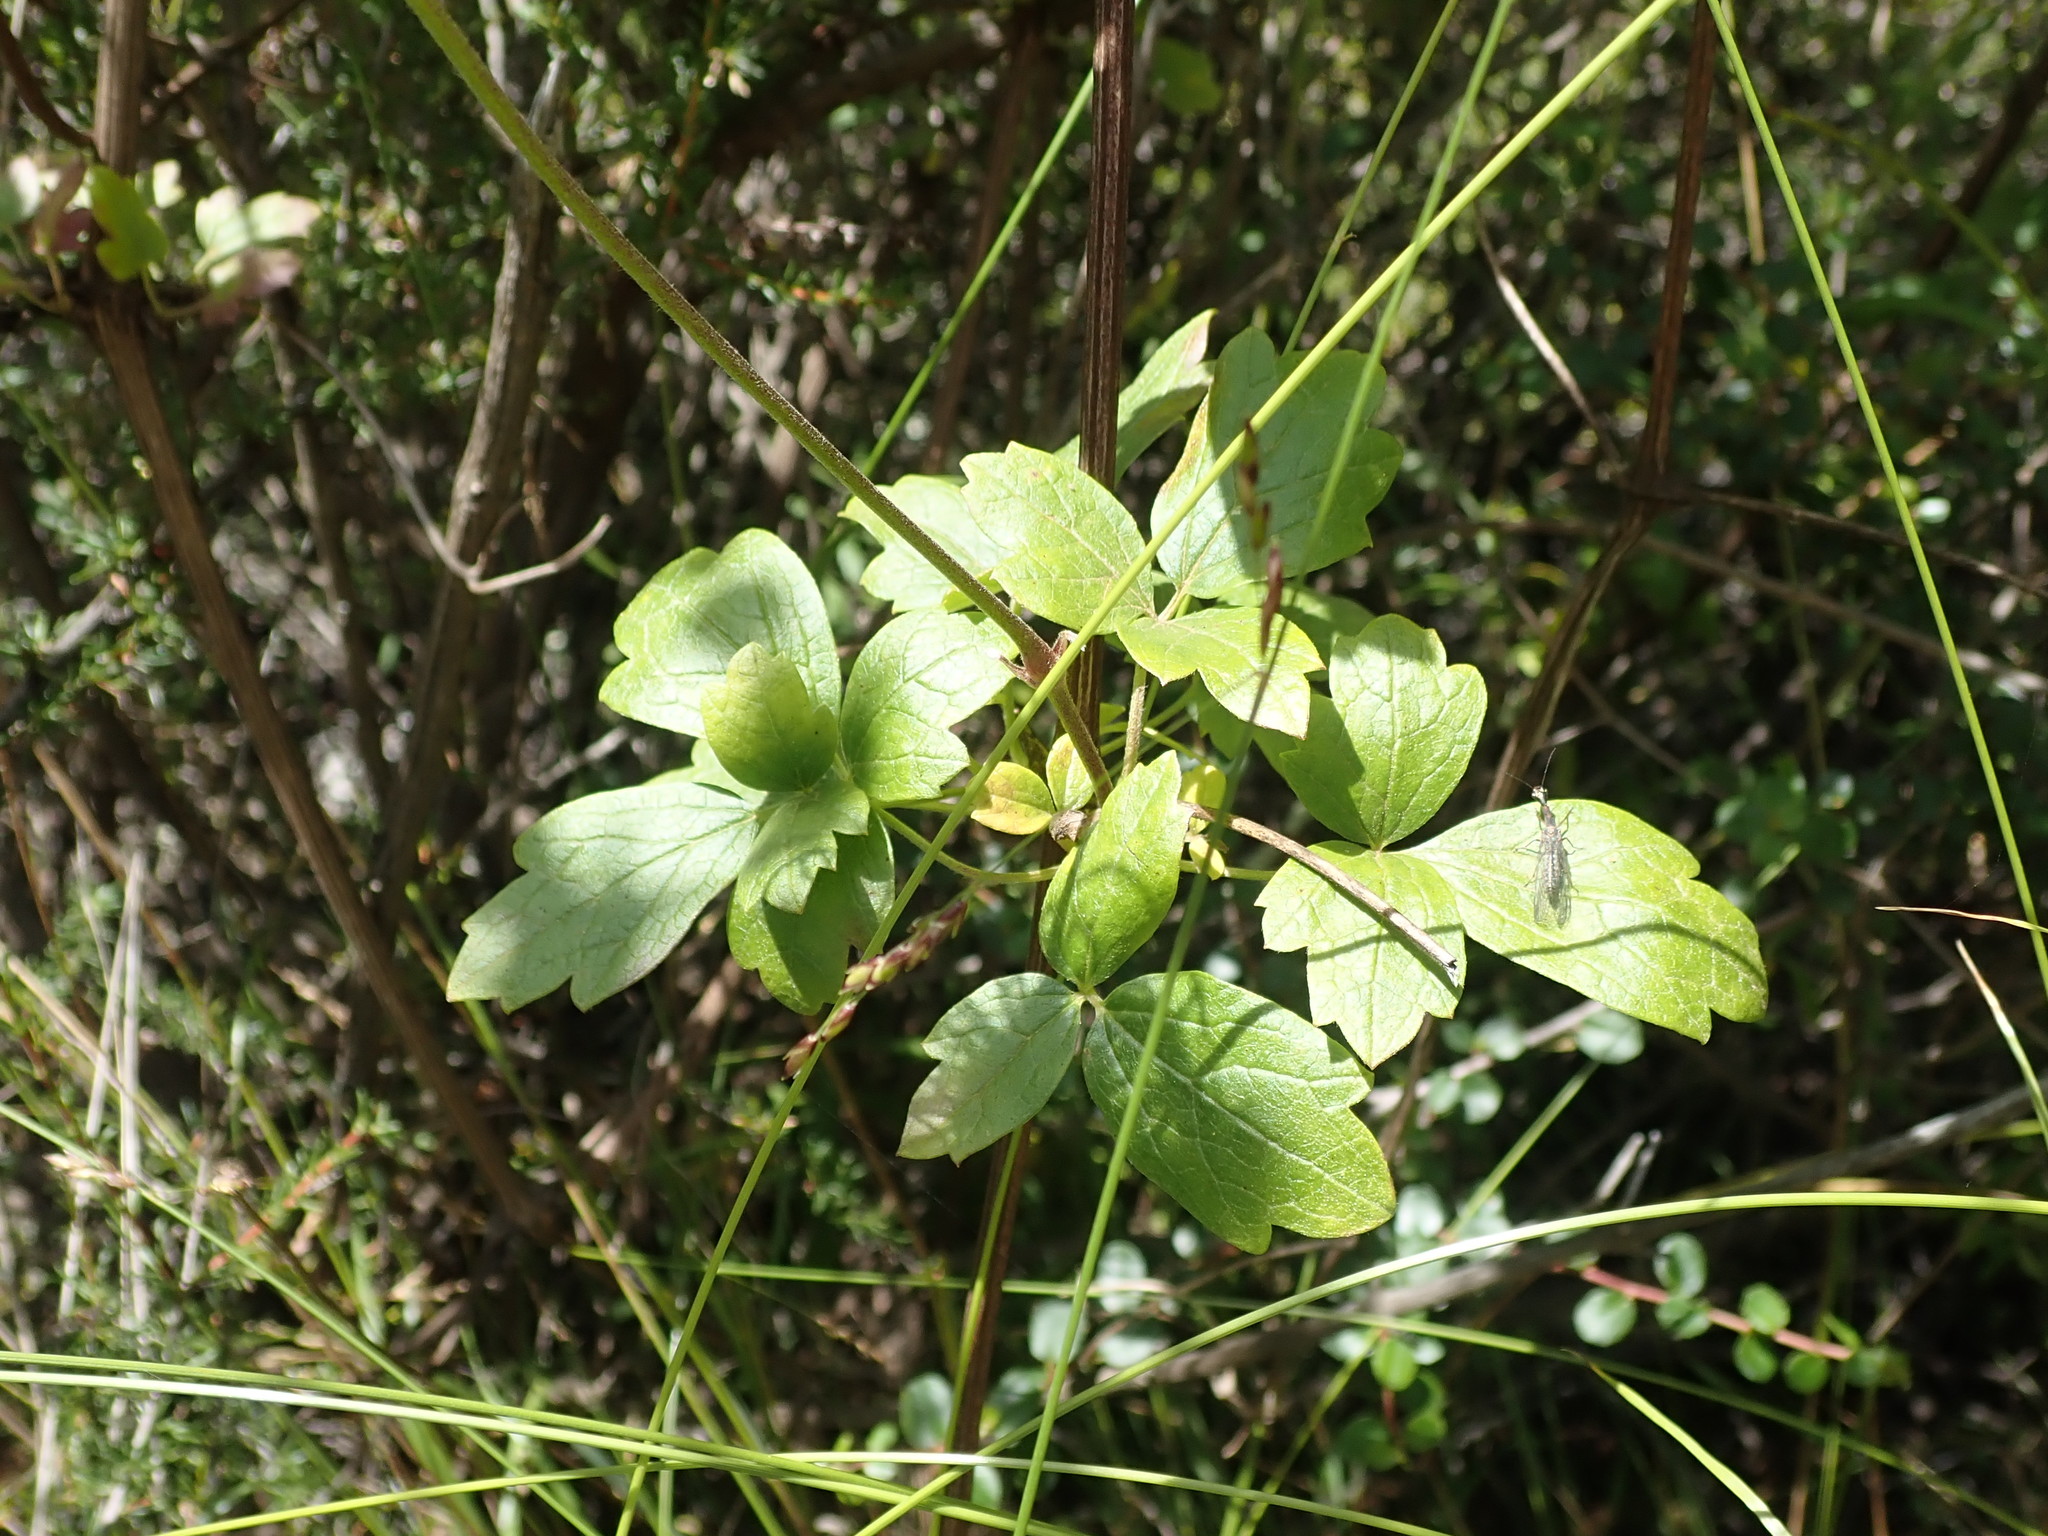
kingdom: Plantae
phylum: Tracheophyta
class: Magnoliopsida
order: Ranunculales
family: Ranunculaceae
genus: Clematis
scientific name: Clematis lasiantha
